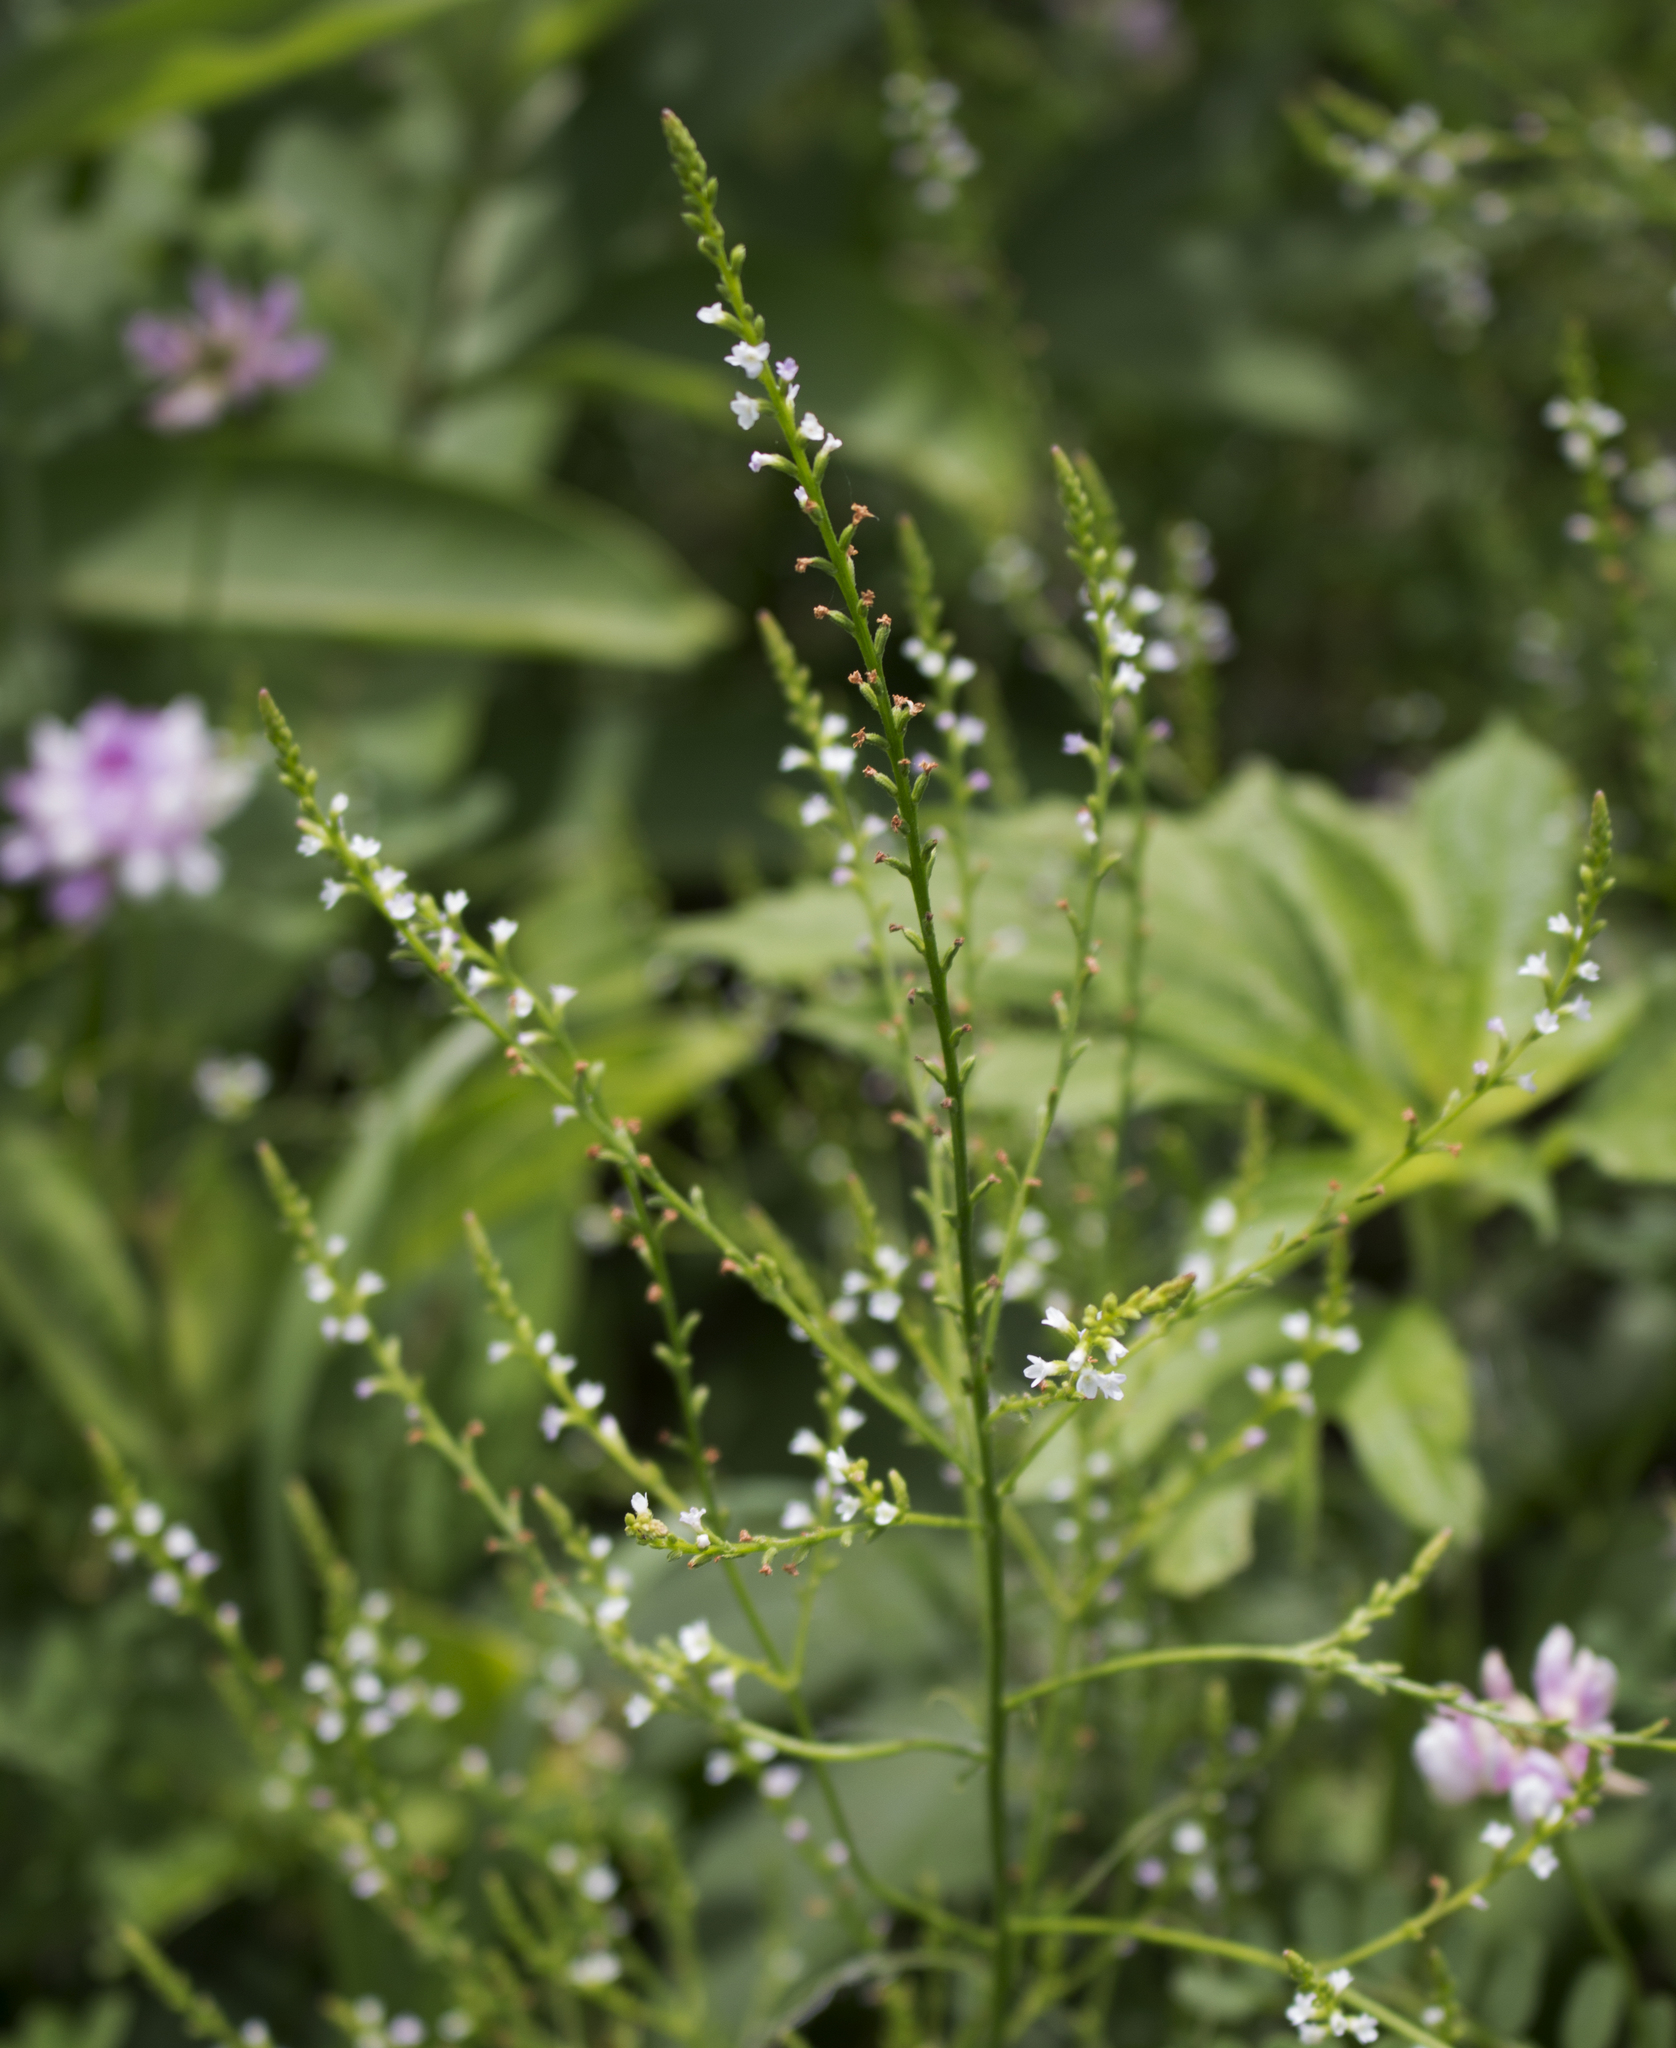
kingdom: Plantae
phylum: Tracheophyta
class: Magnoliopsida
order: Lamiales
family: Verbenaceae
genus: Verbena
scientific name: Verbena urticifolia
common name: Nettle-leaved vervain
